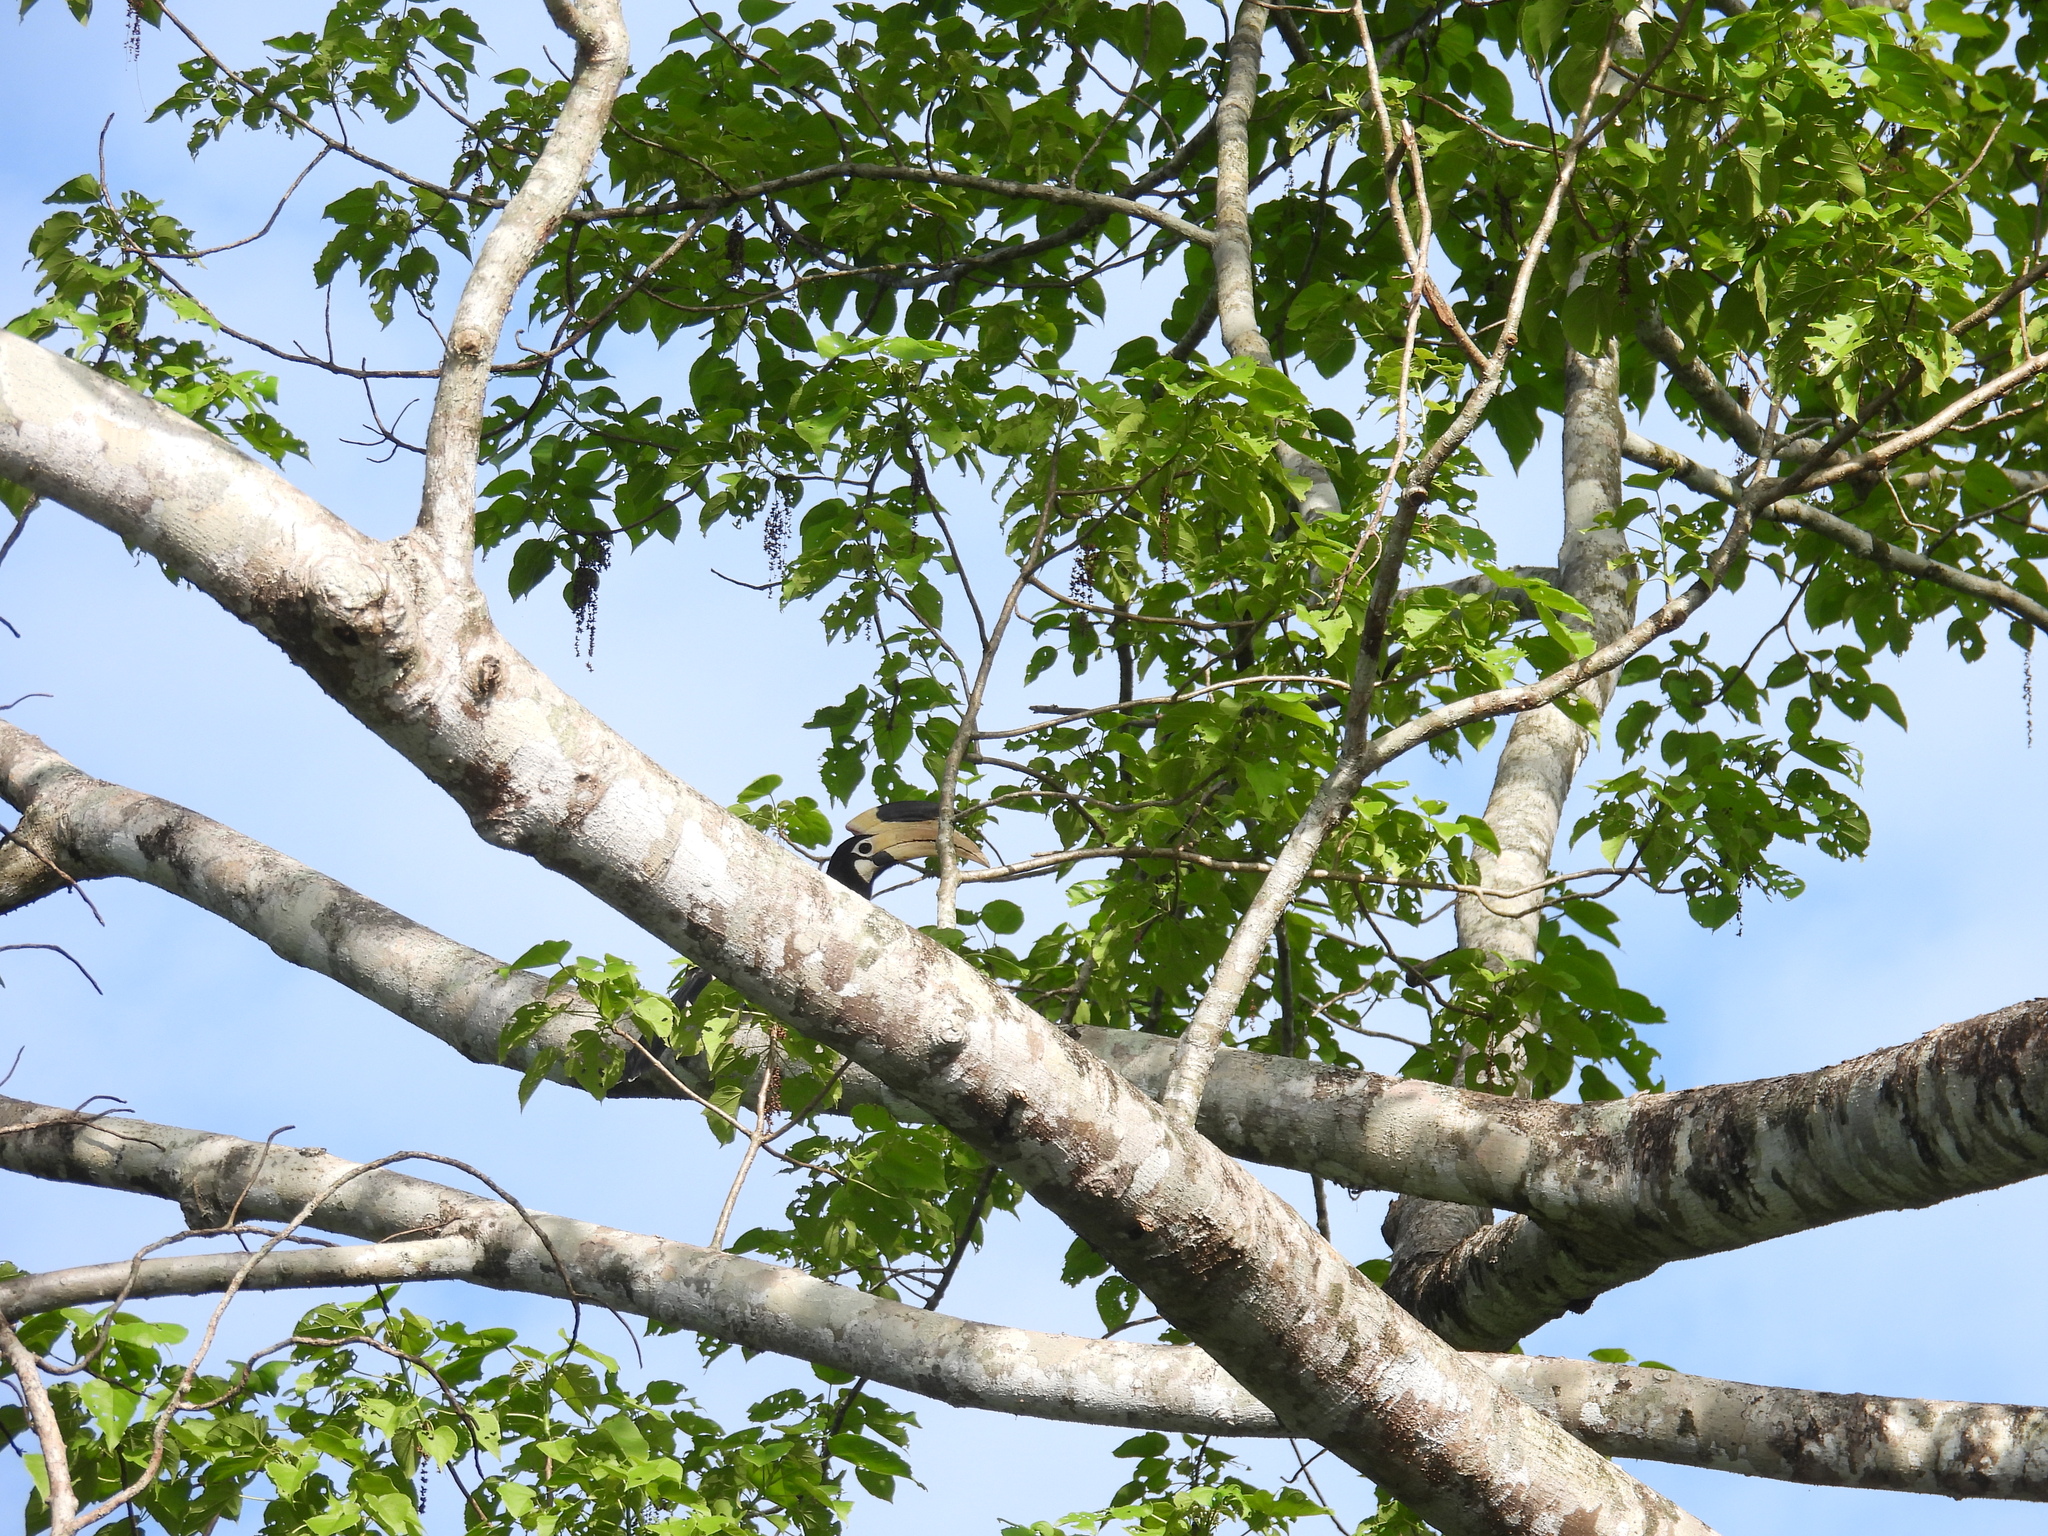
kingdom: Animalia
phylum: Chordata
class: Aves
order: Bucerotiformes
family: Bucerotidae
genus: Anthracoceros
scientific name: Anthracoceros coronatus
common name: Malabar pied hornbill
